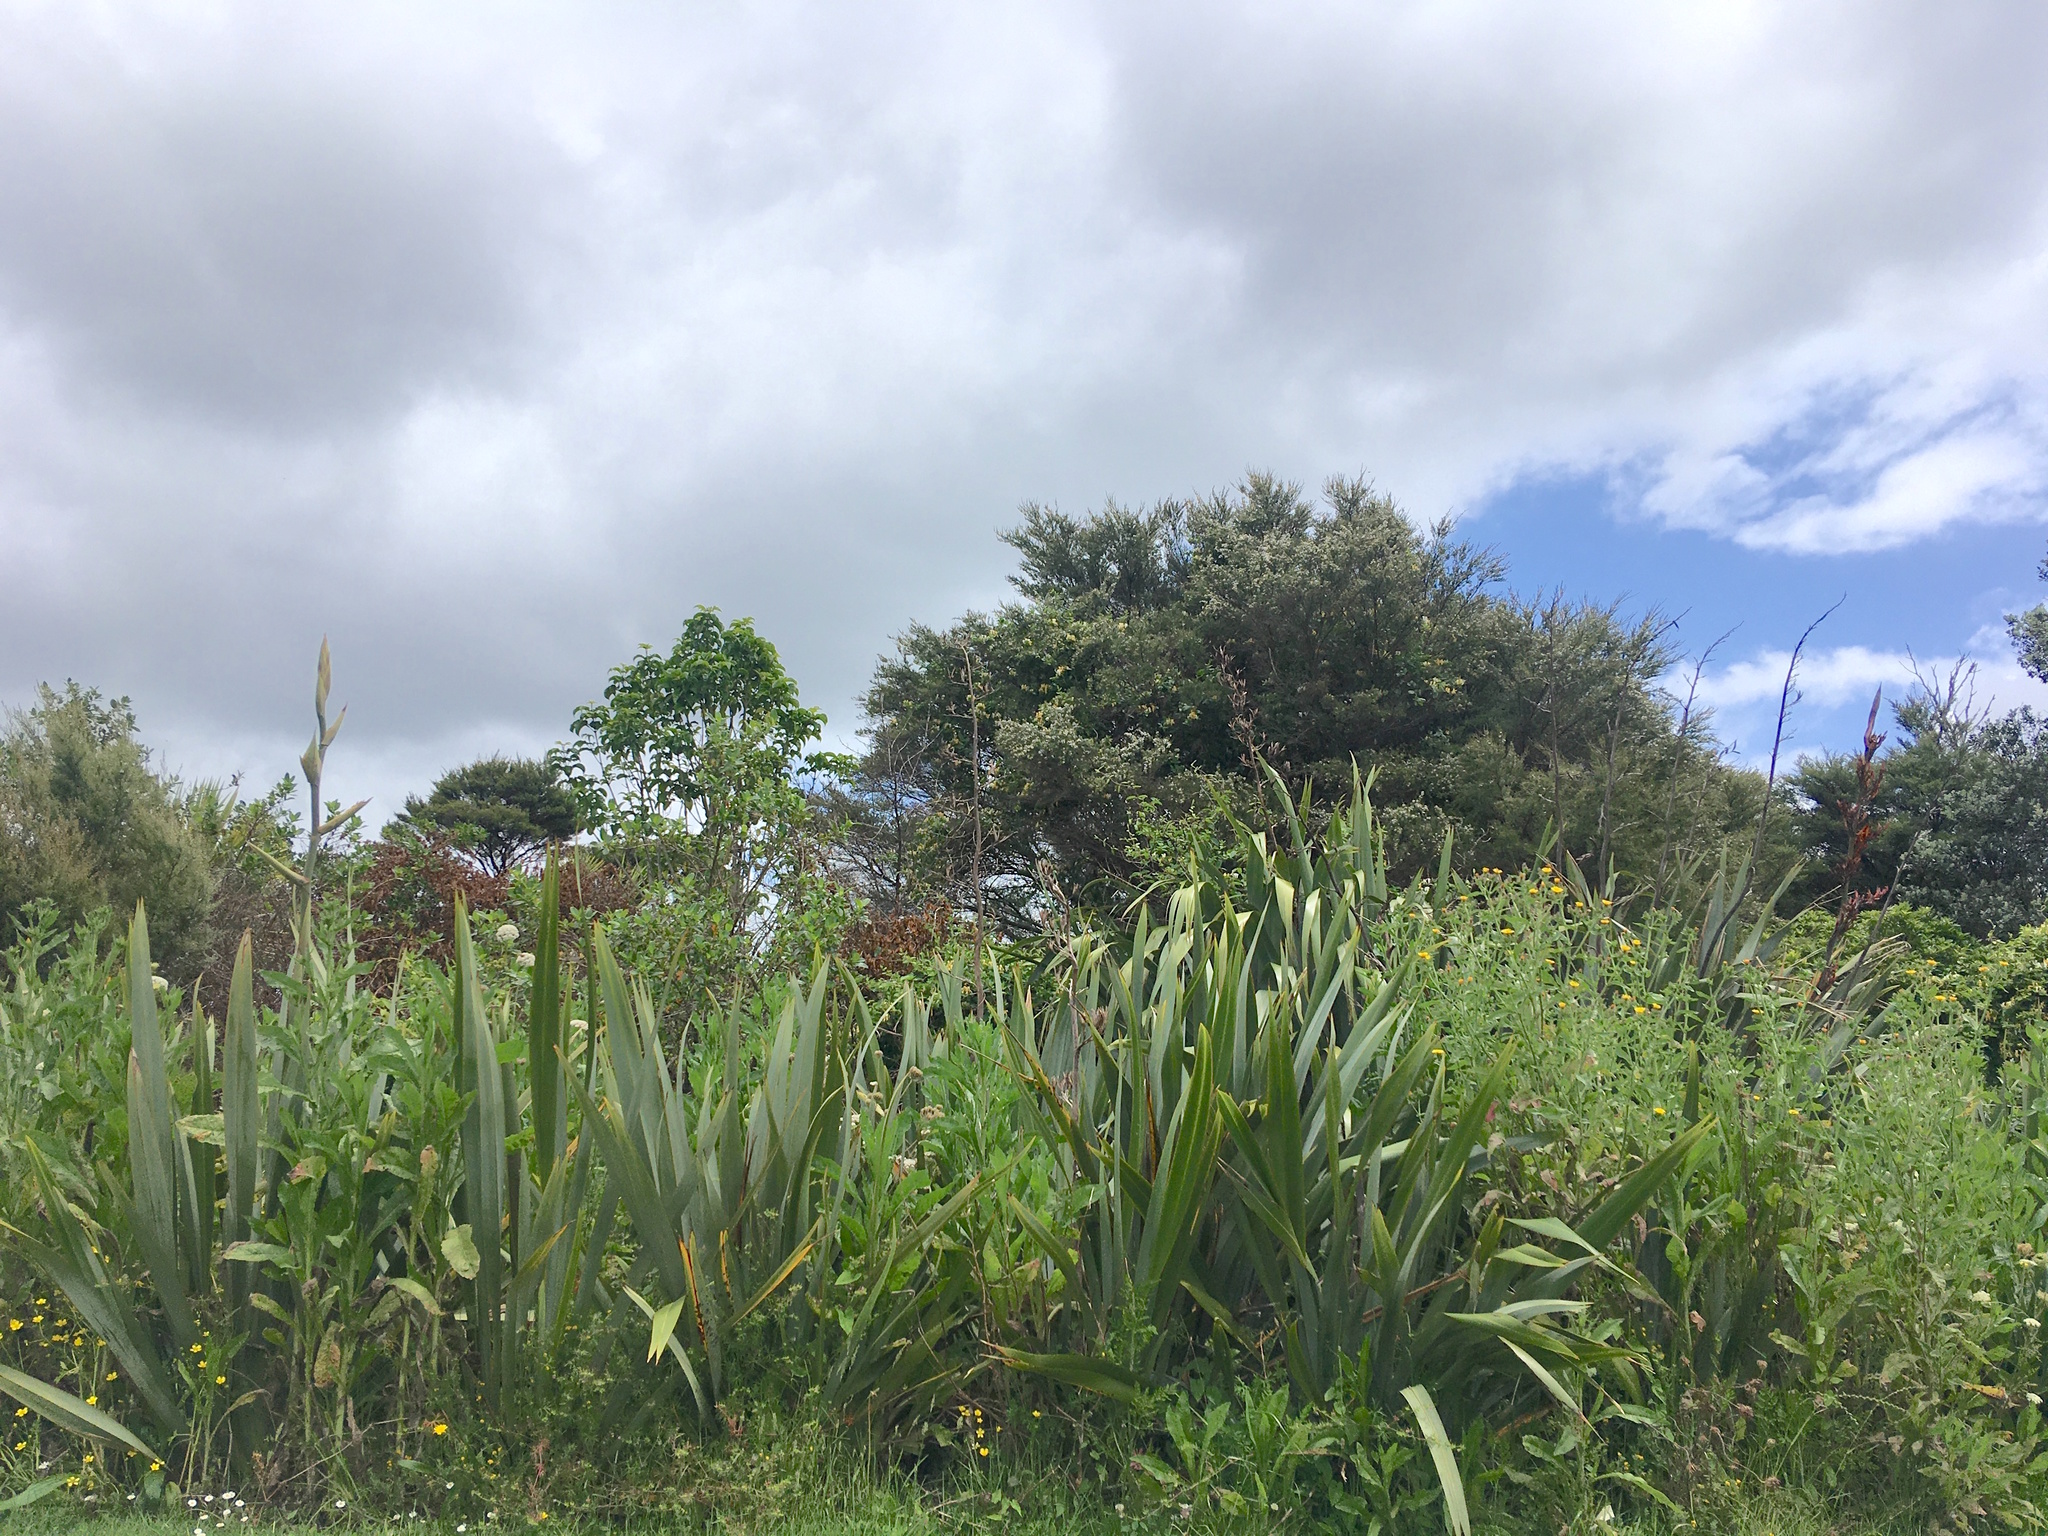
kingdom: Plantae
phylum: Tracheophyta
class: Magnoliopsida
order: Lamiales
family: Lamiaceae
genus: Vitex
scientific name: Vitex lucens
